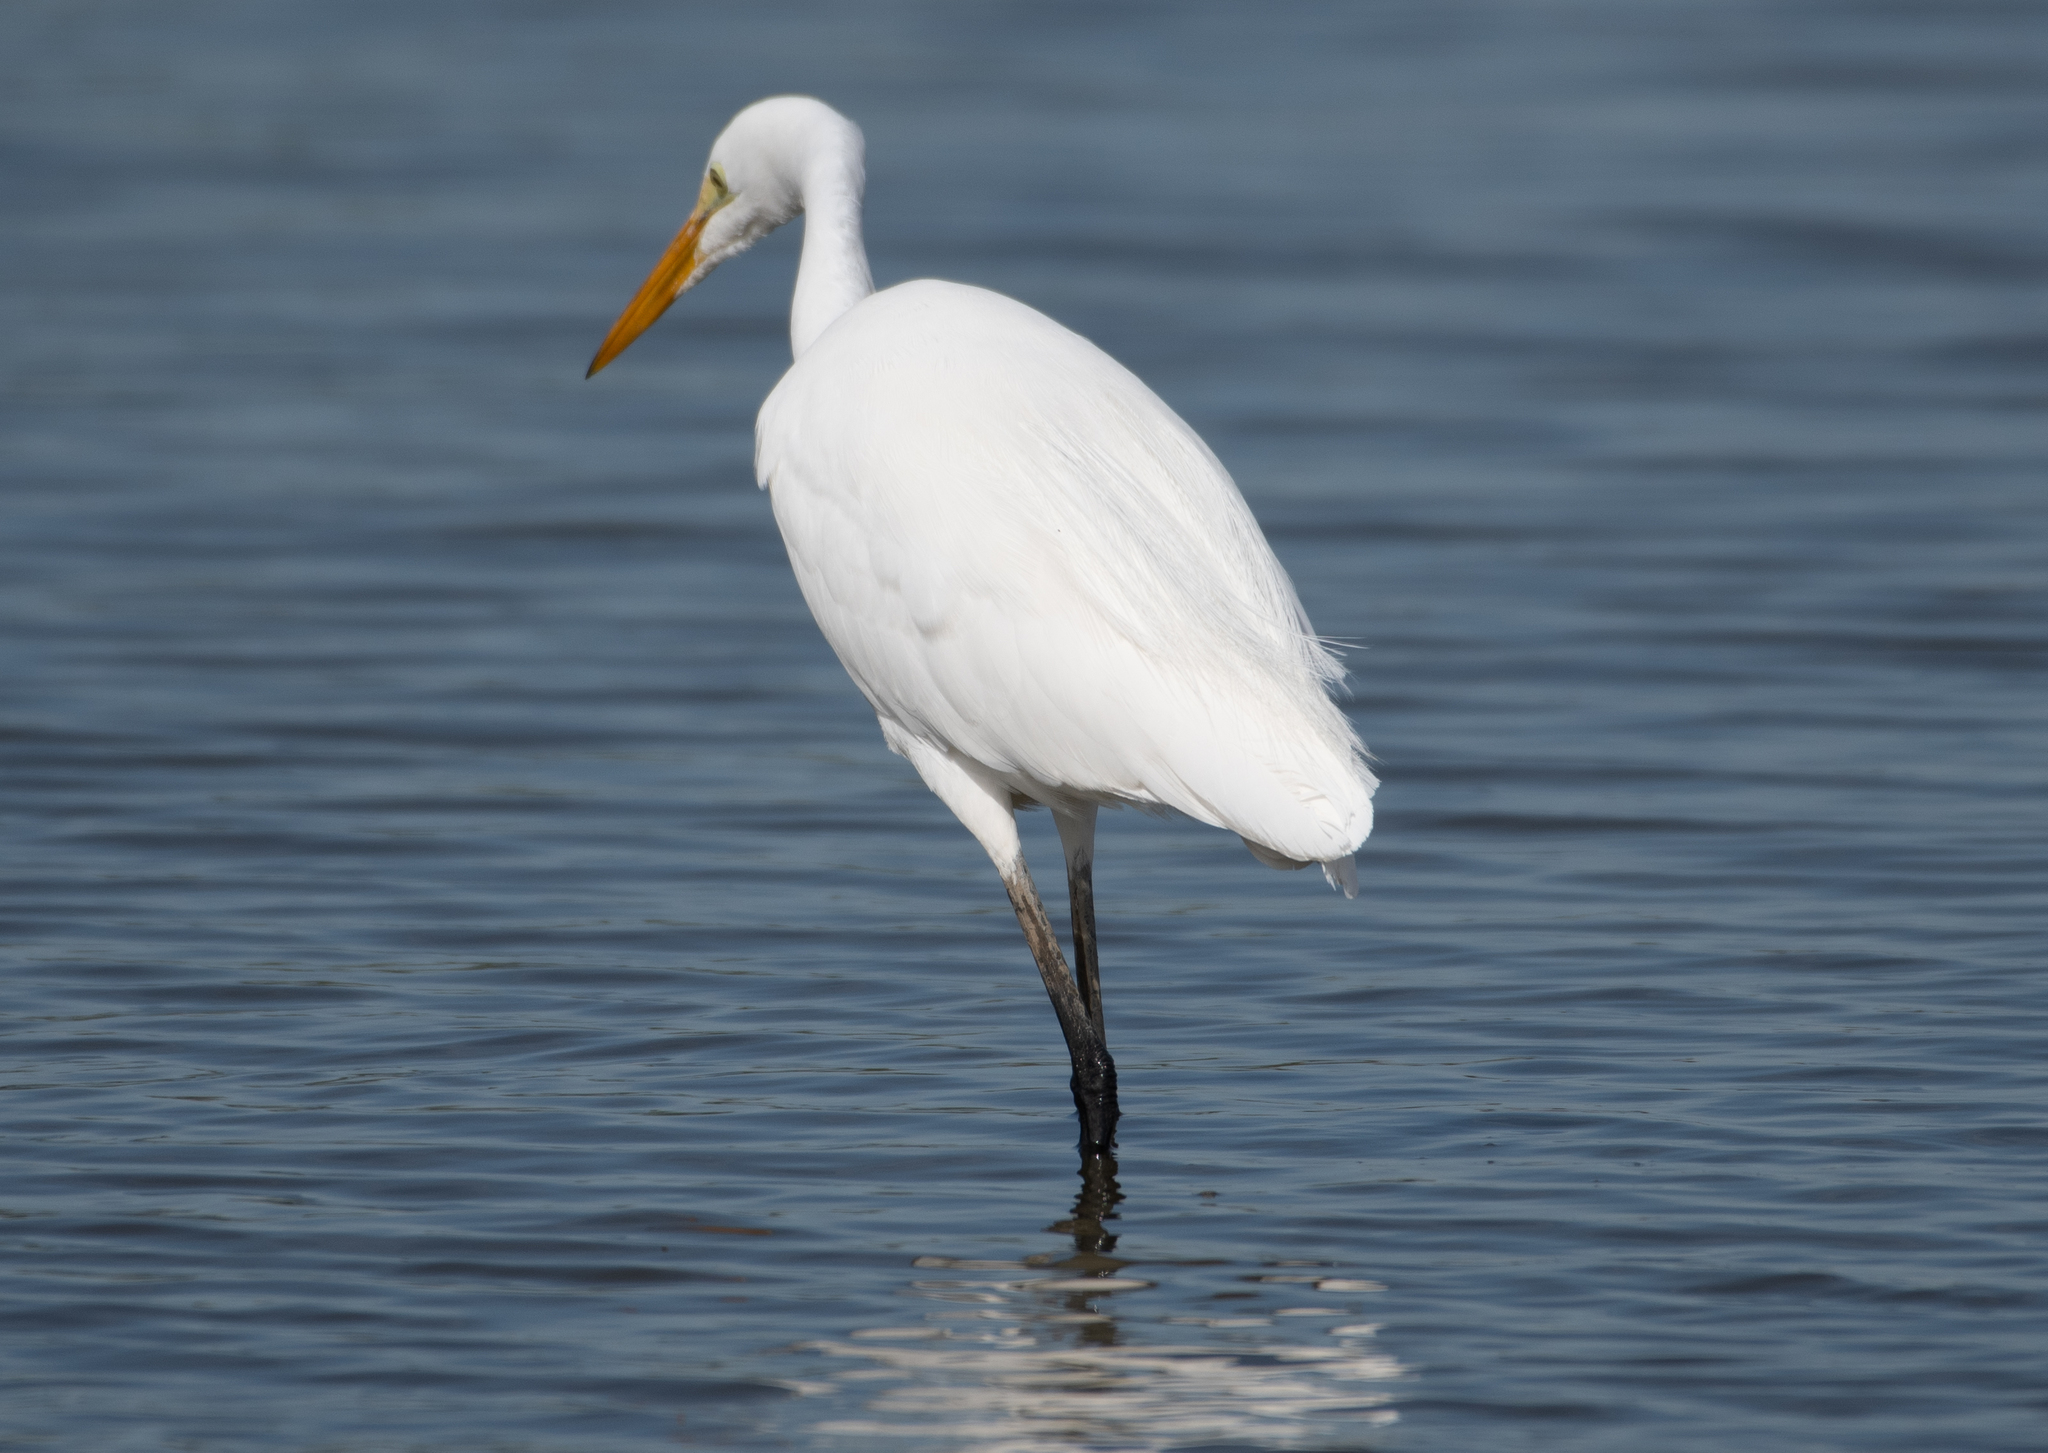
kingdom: Animalia
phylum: Chordata
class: Aves
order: Pelecaniformes
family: Ardeidae
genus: Ardea
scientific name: Ardea alba
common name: Great egret
